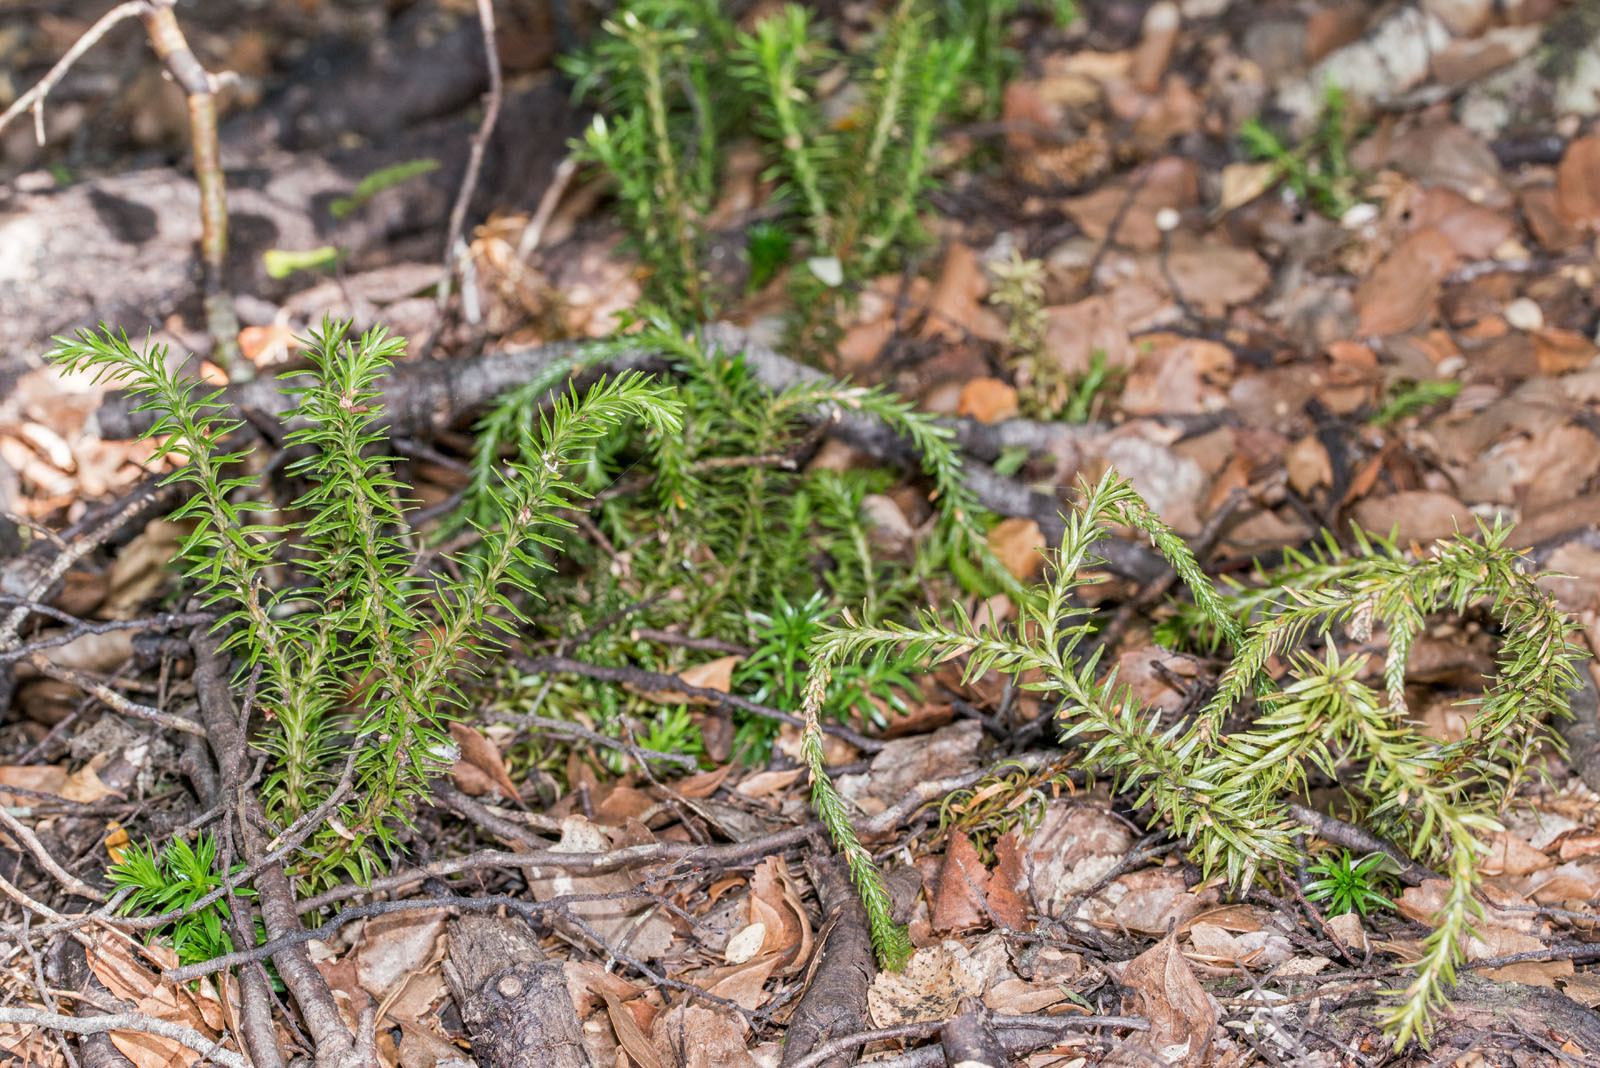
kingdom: Plantae
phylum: Tracheophyta
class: Lycopodiopsida
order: Lycopodiales
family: Lycopodiaceae
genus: Phlegmariurus
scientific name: Phlegmariurus varius
